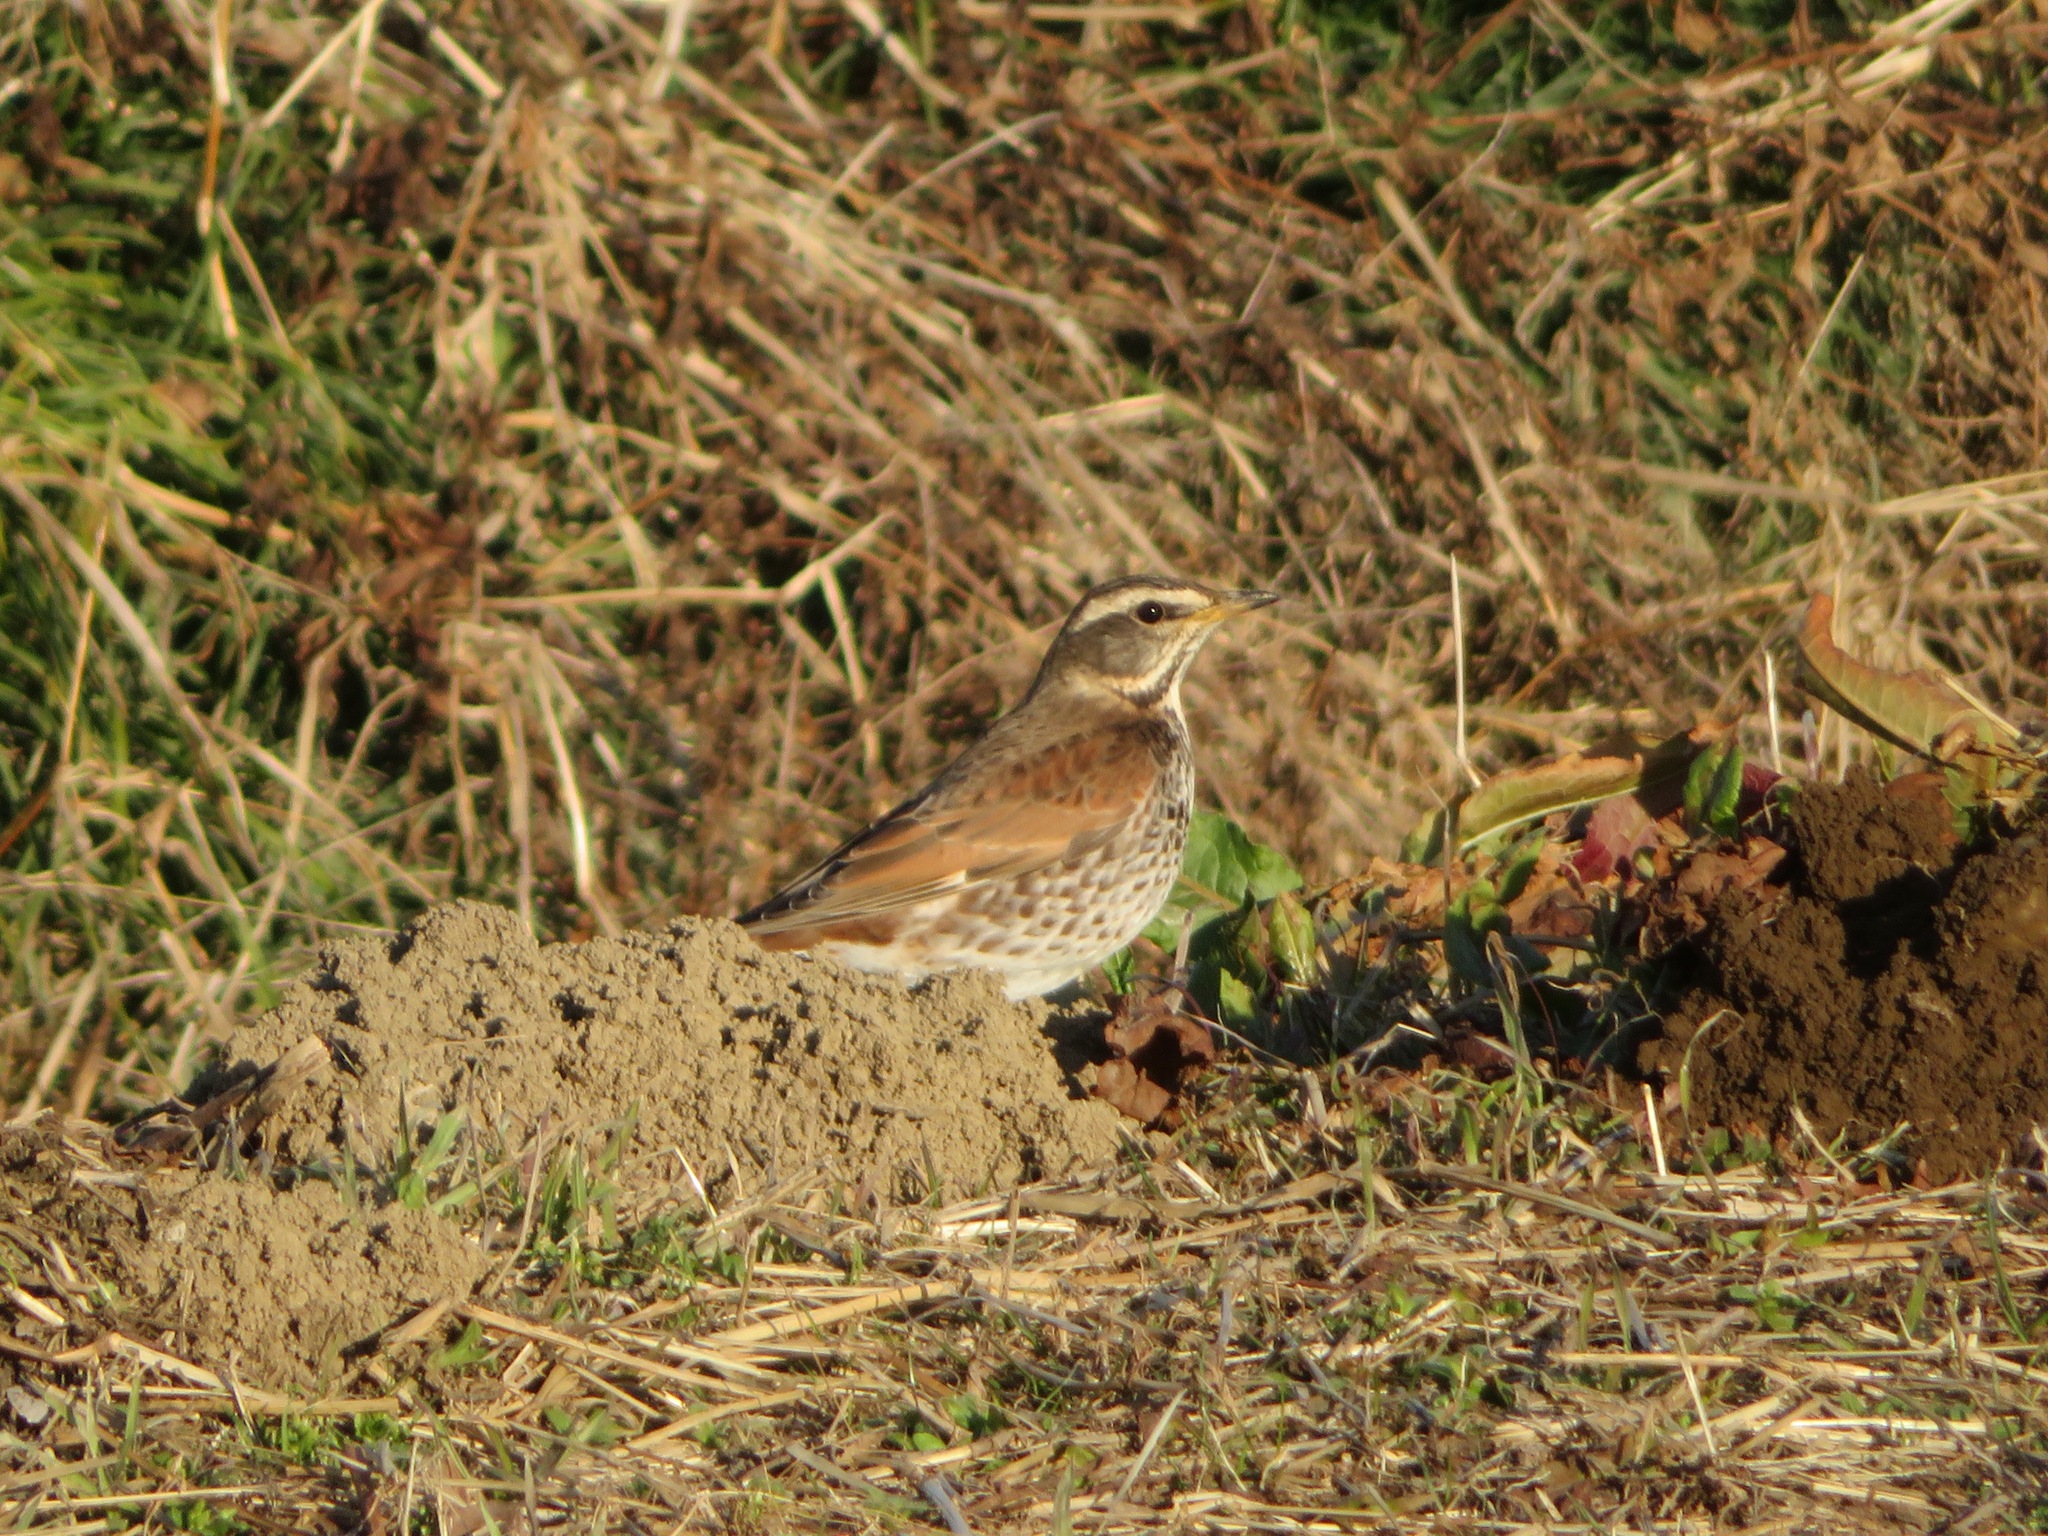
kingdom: Animalia
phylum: Chordata
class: Aves
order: Passeriformes
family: Turdidae
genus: Turdus
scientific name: Turdus eunomus
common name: Dusky thrush
